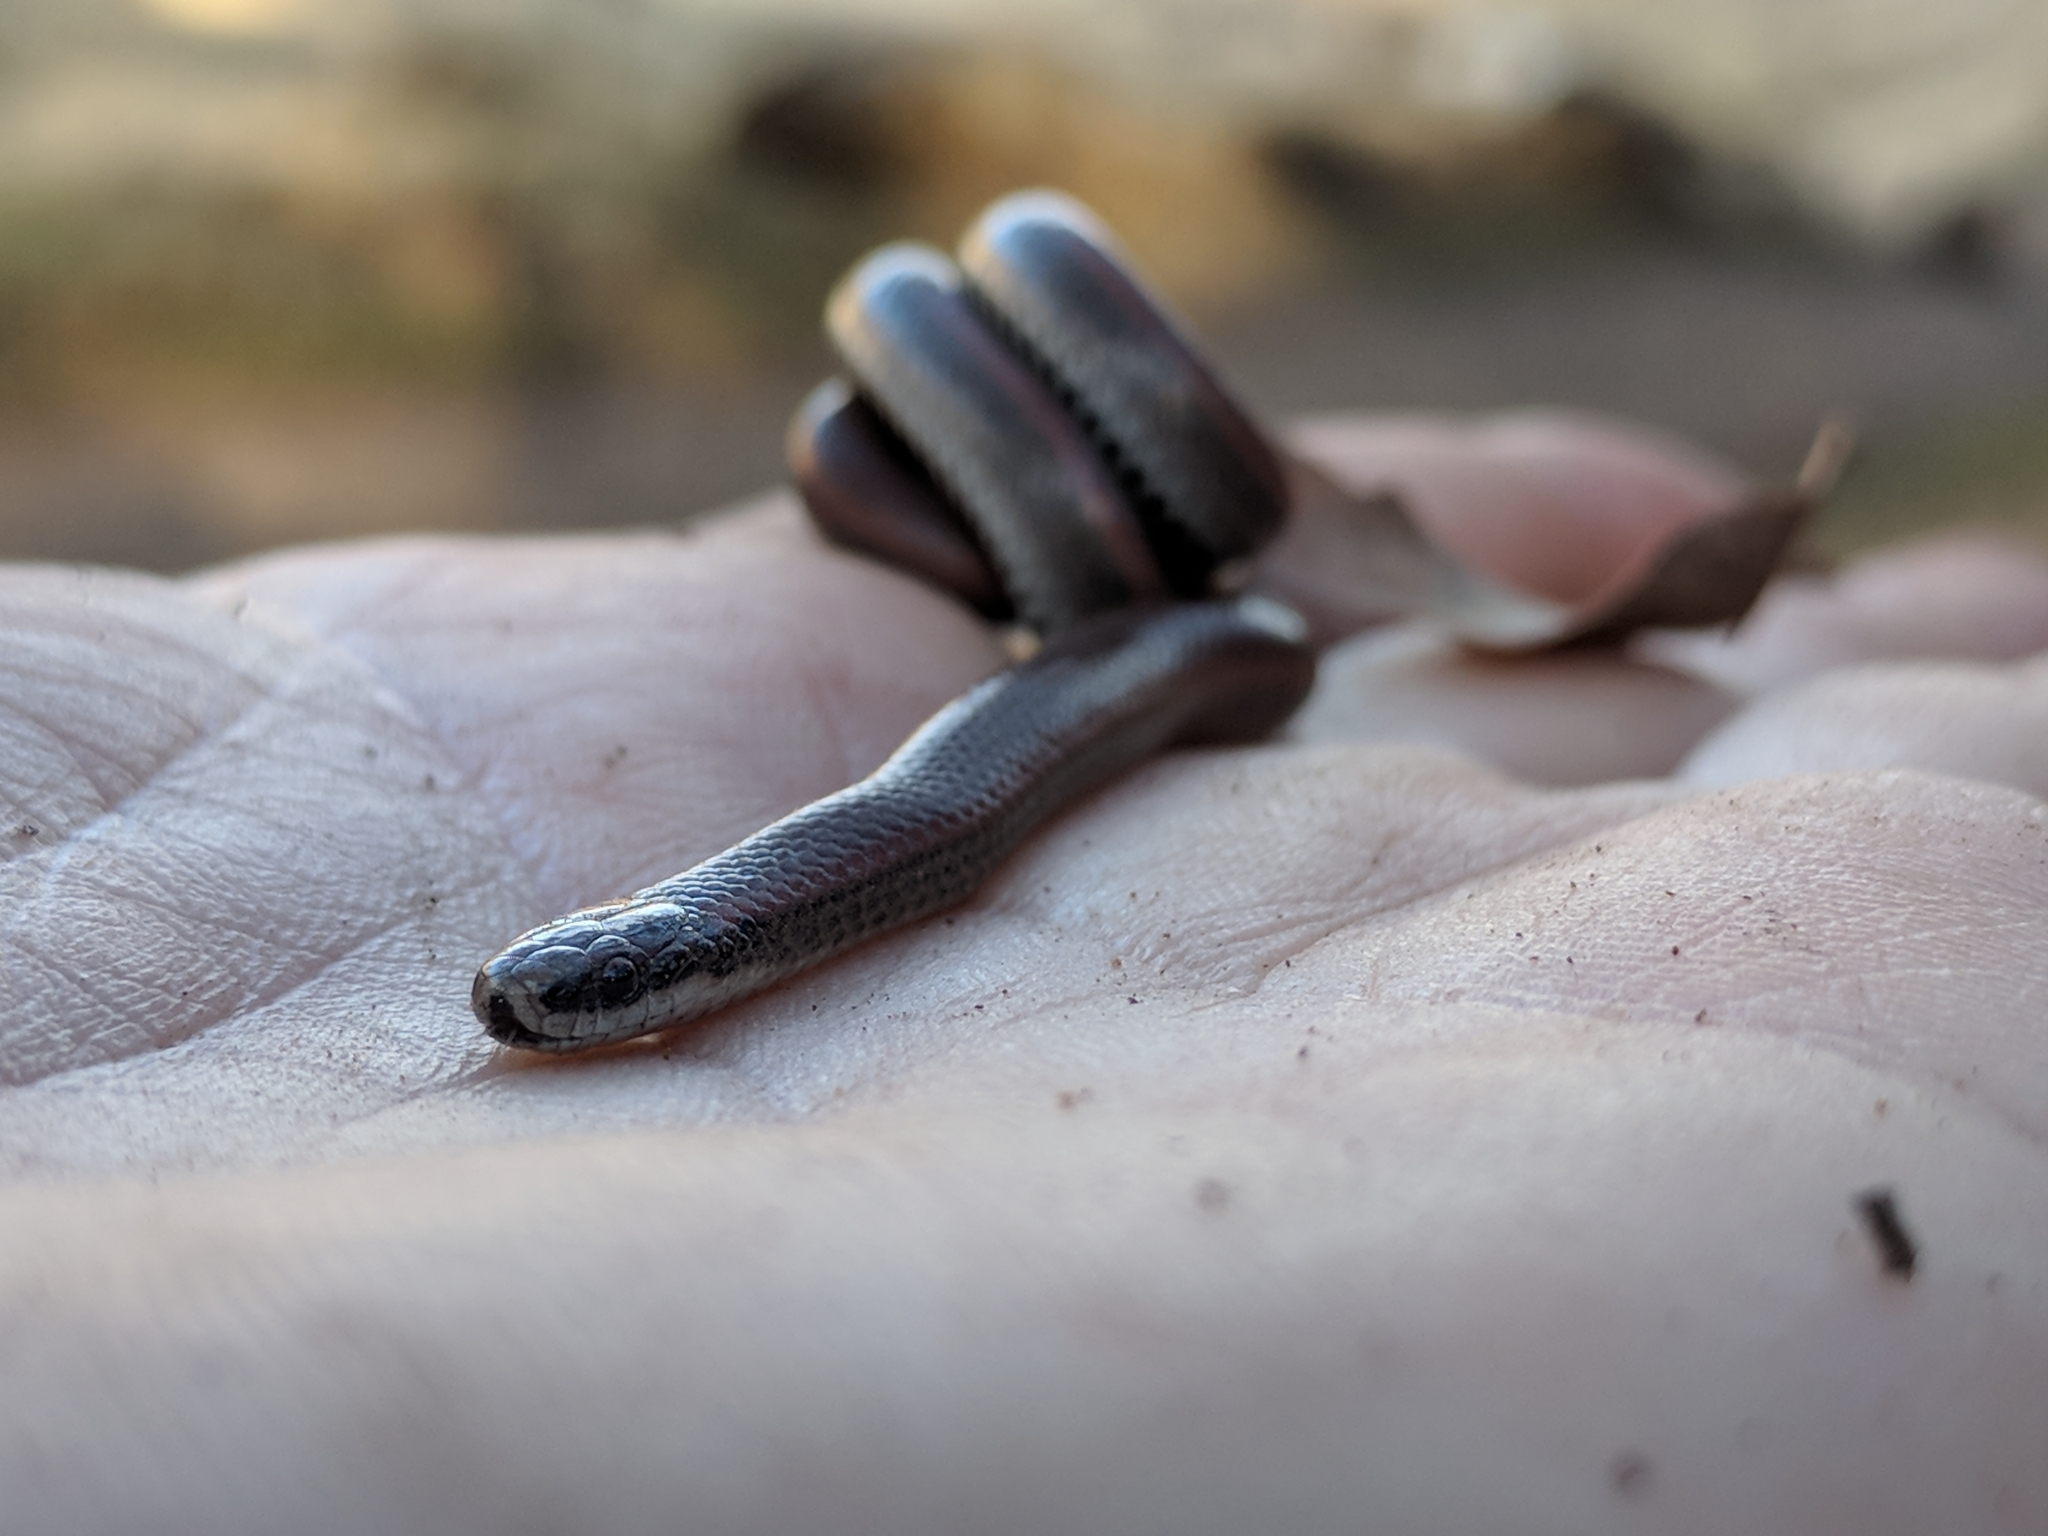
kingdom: Animalia
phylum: Chordata
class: Squamata
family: Colubridae
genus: Contia
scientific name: Contia tenuis
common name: Sharptail snake
